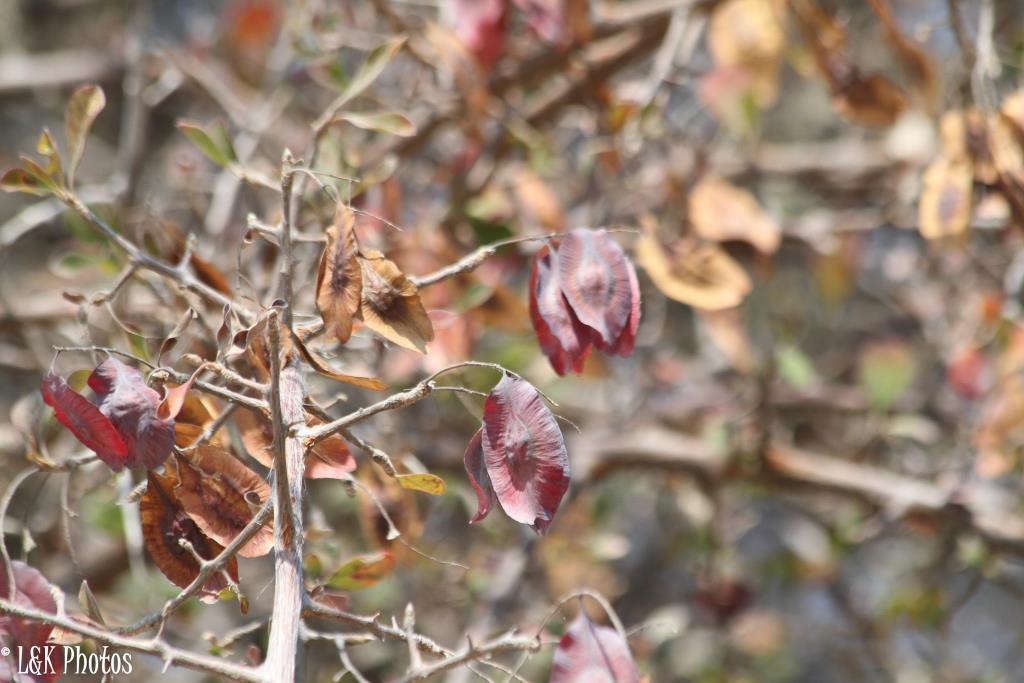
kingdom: Plantae
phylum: Tracheophyta
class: Magnoliopsida
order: Myrtales
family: Combretaceae
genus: Terminalia
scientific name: Terminalia prunioides
